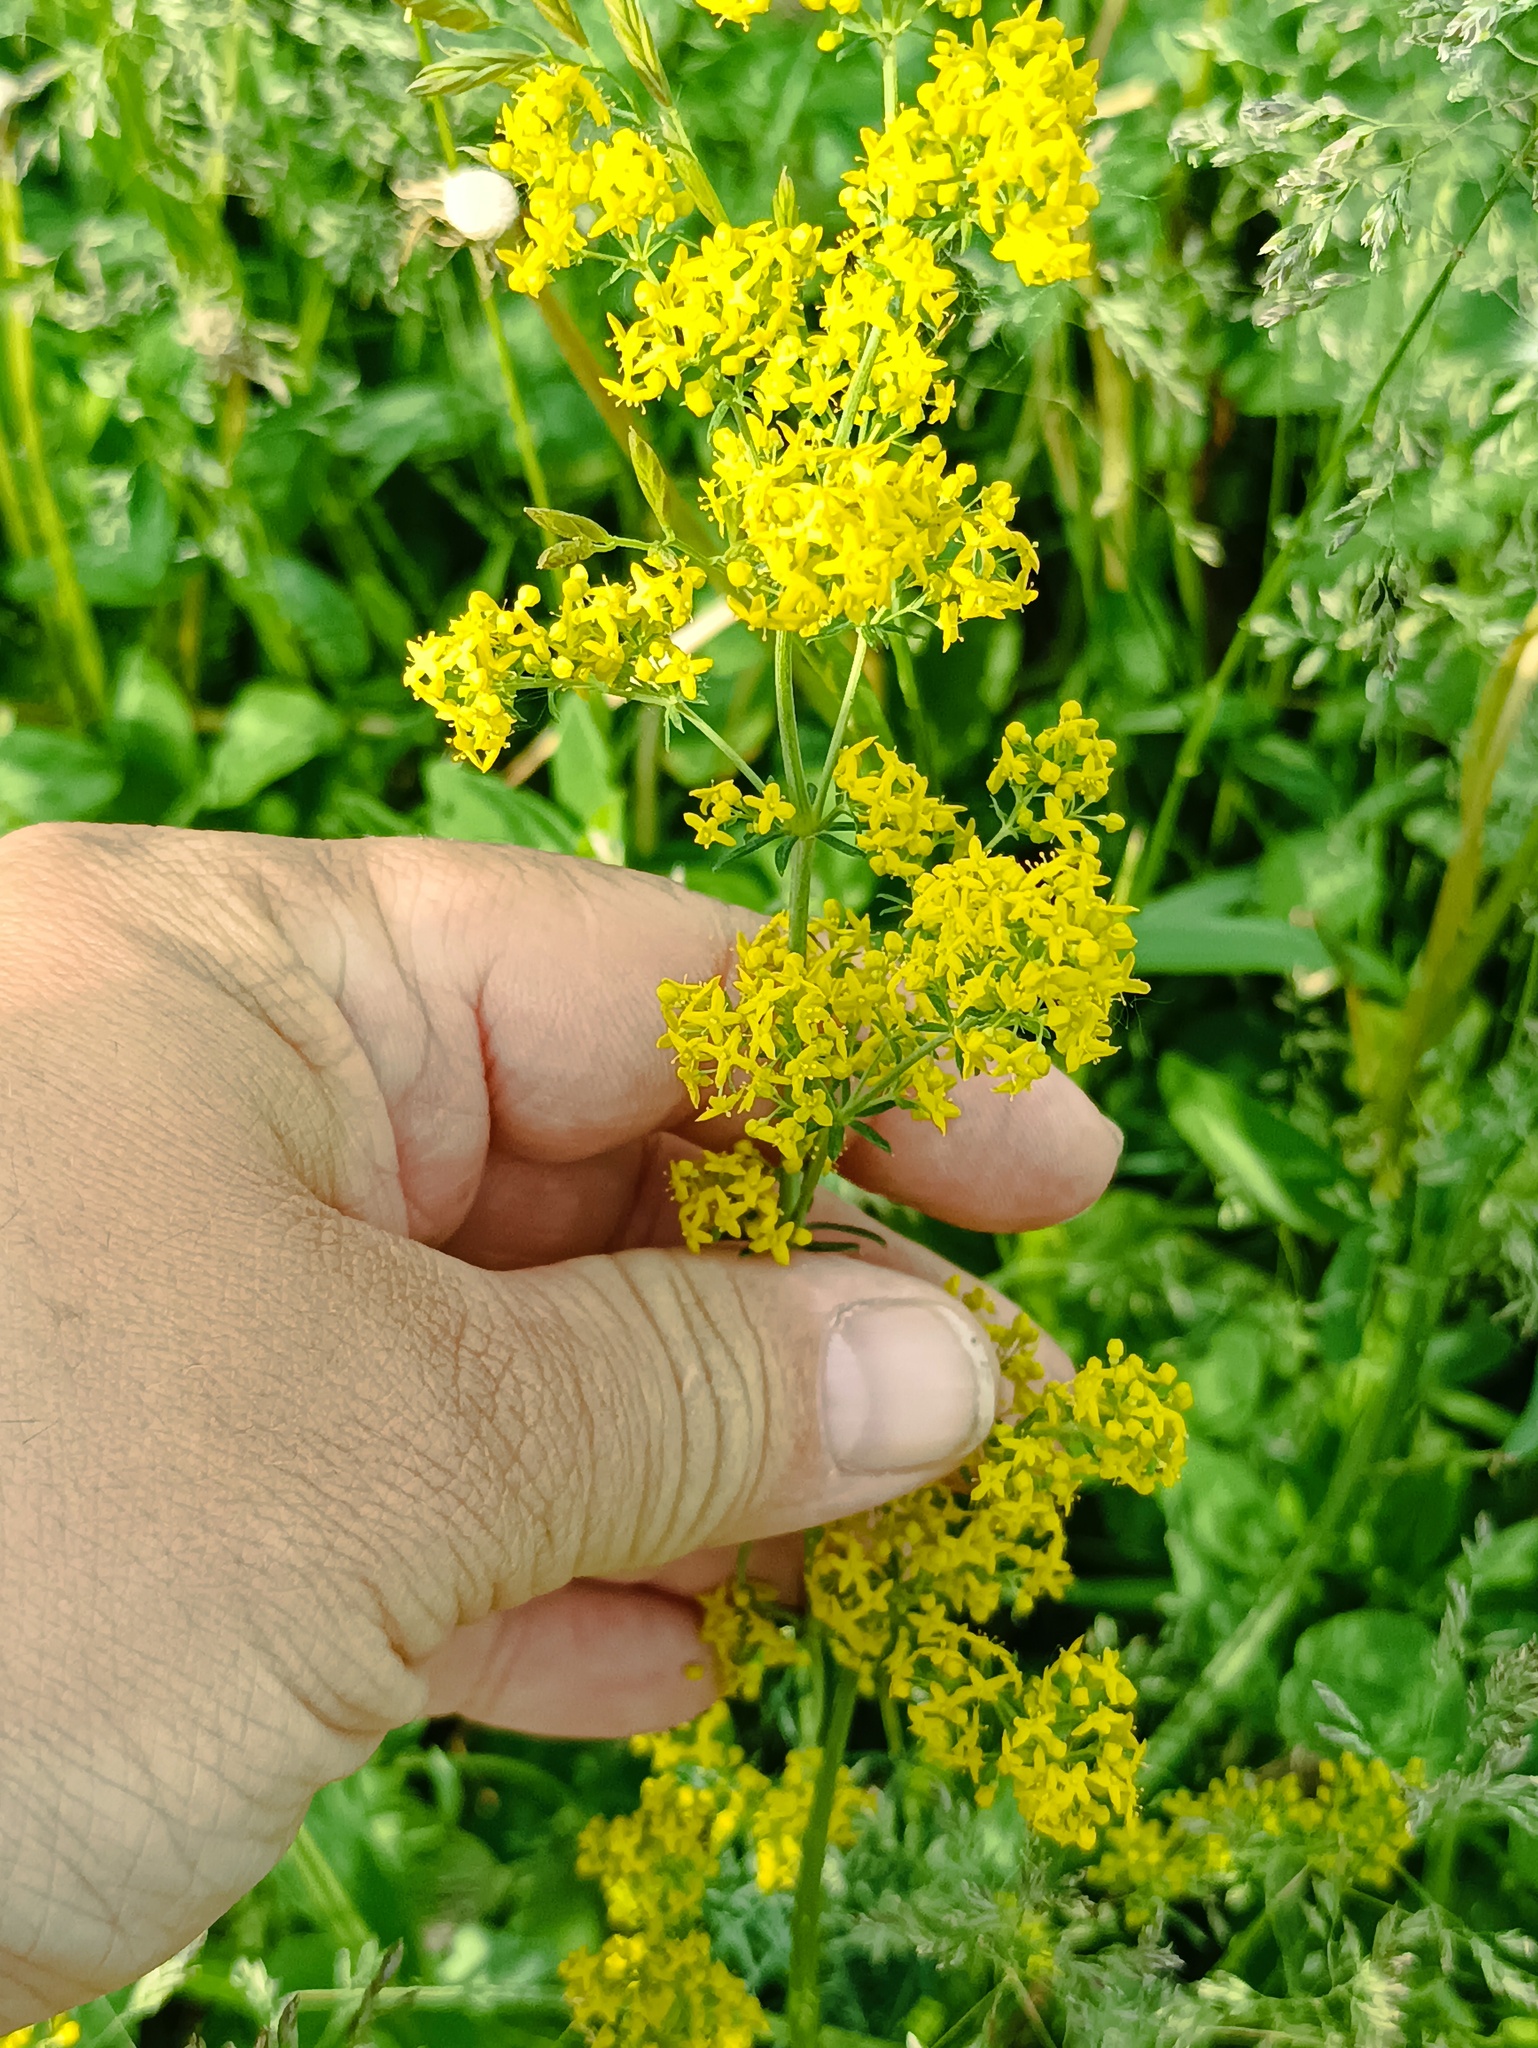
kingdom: Plantae
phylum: Tracheophyta
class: Magnoliopsida
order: Gentianales
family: Rubiaceae
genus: Galium
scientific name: Galium verum
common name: Lady's bedstraw
